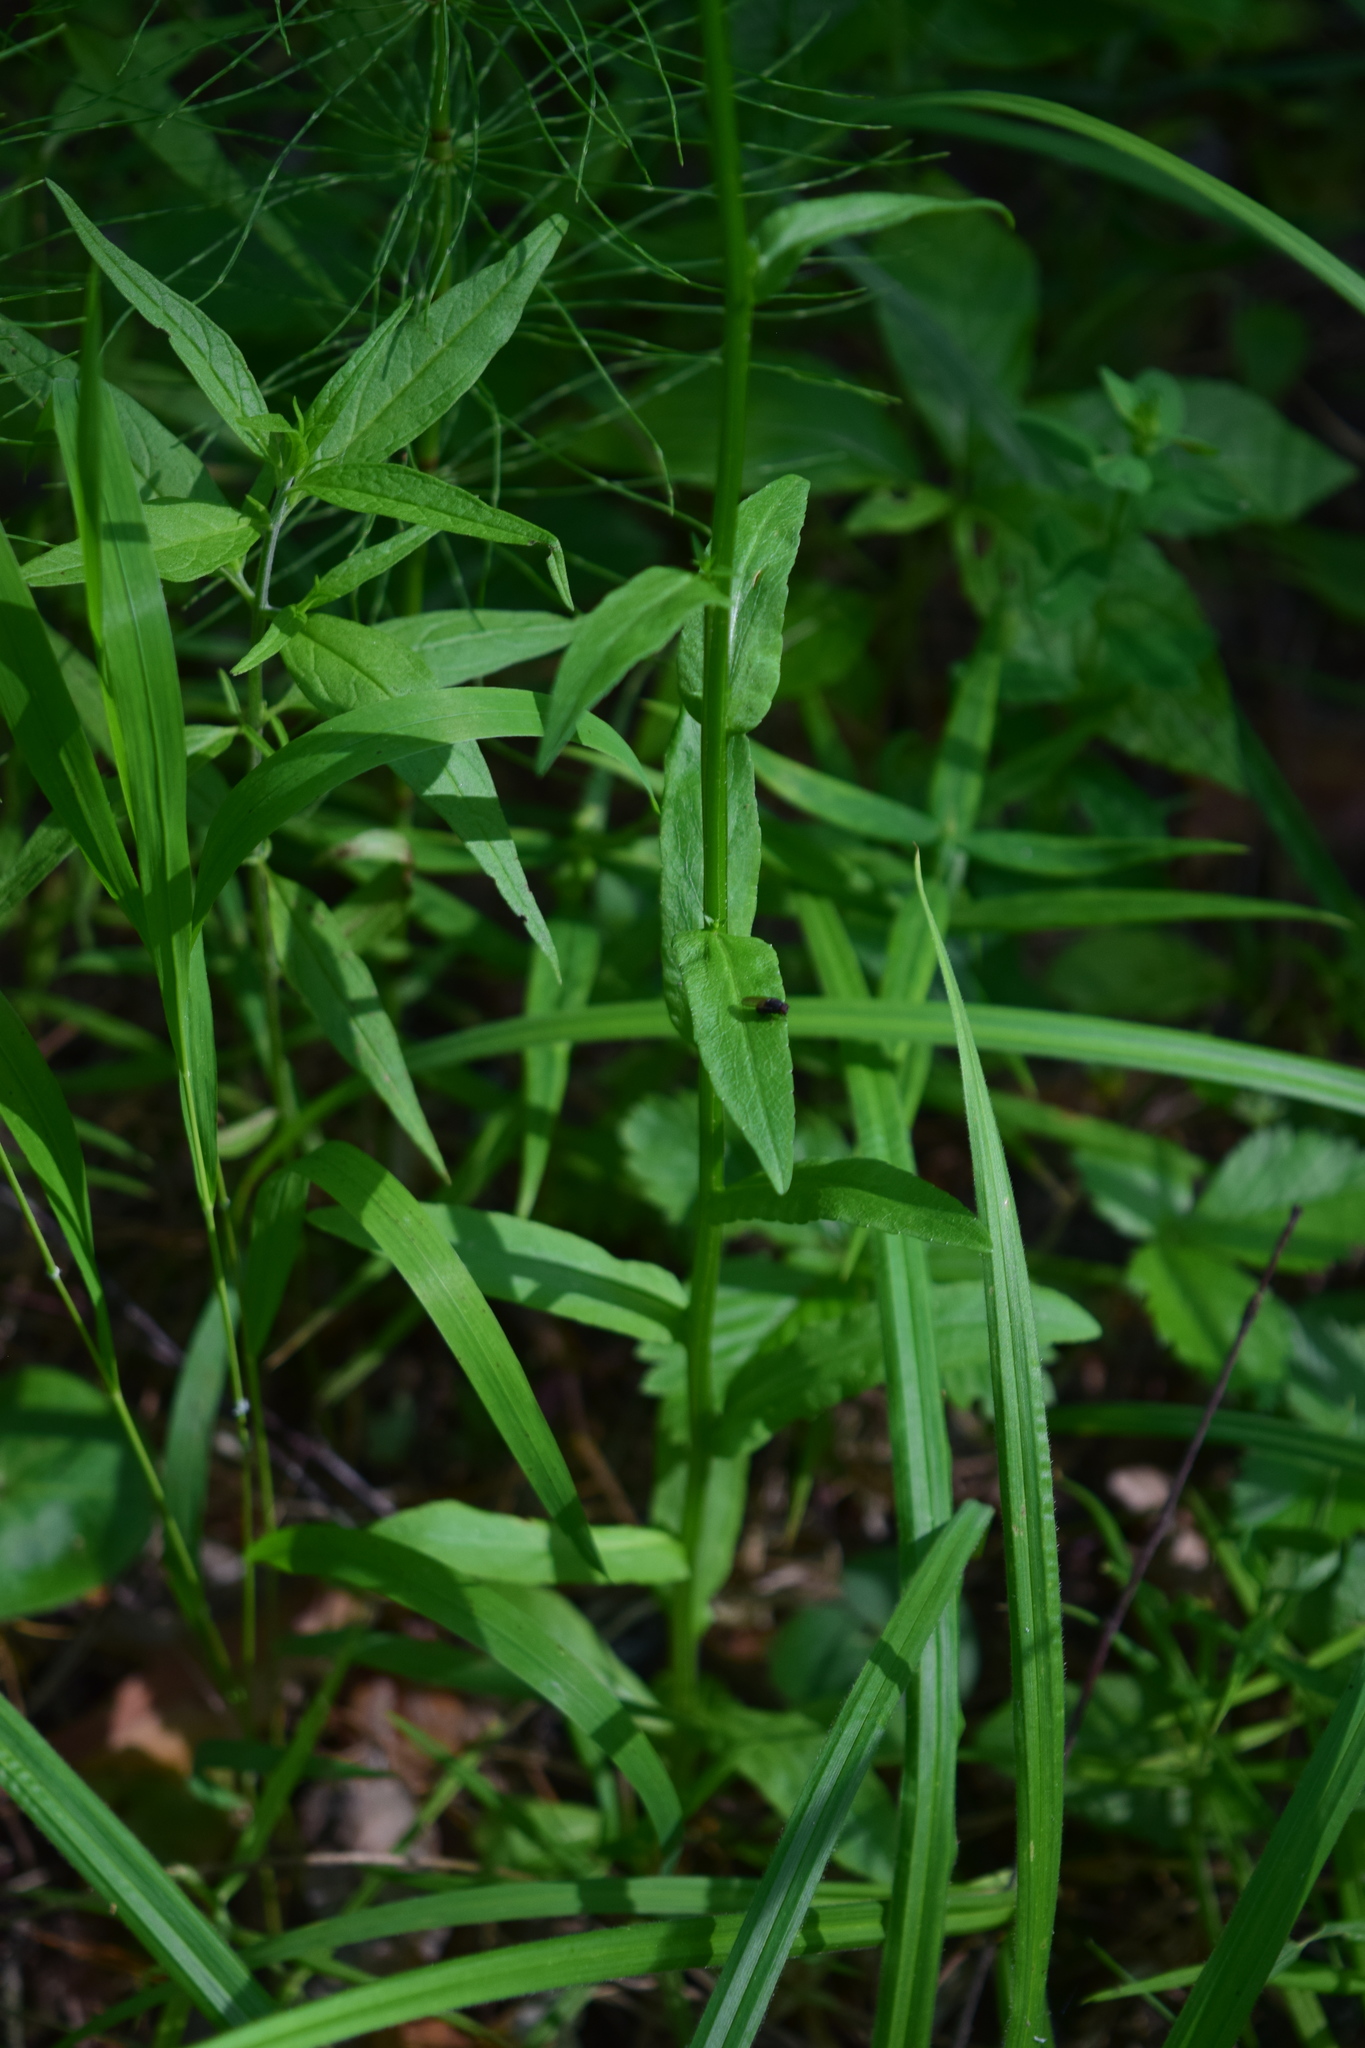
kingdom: Plantae
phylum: Tracheophyta
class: Magnoliopsida
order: Asterales
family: Campanulaceae
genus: Campanula
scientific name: Campanula patula
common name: Spreading bellflower
